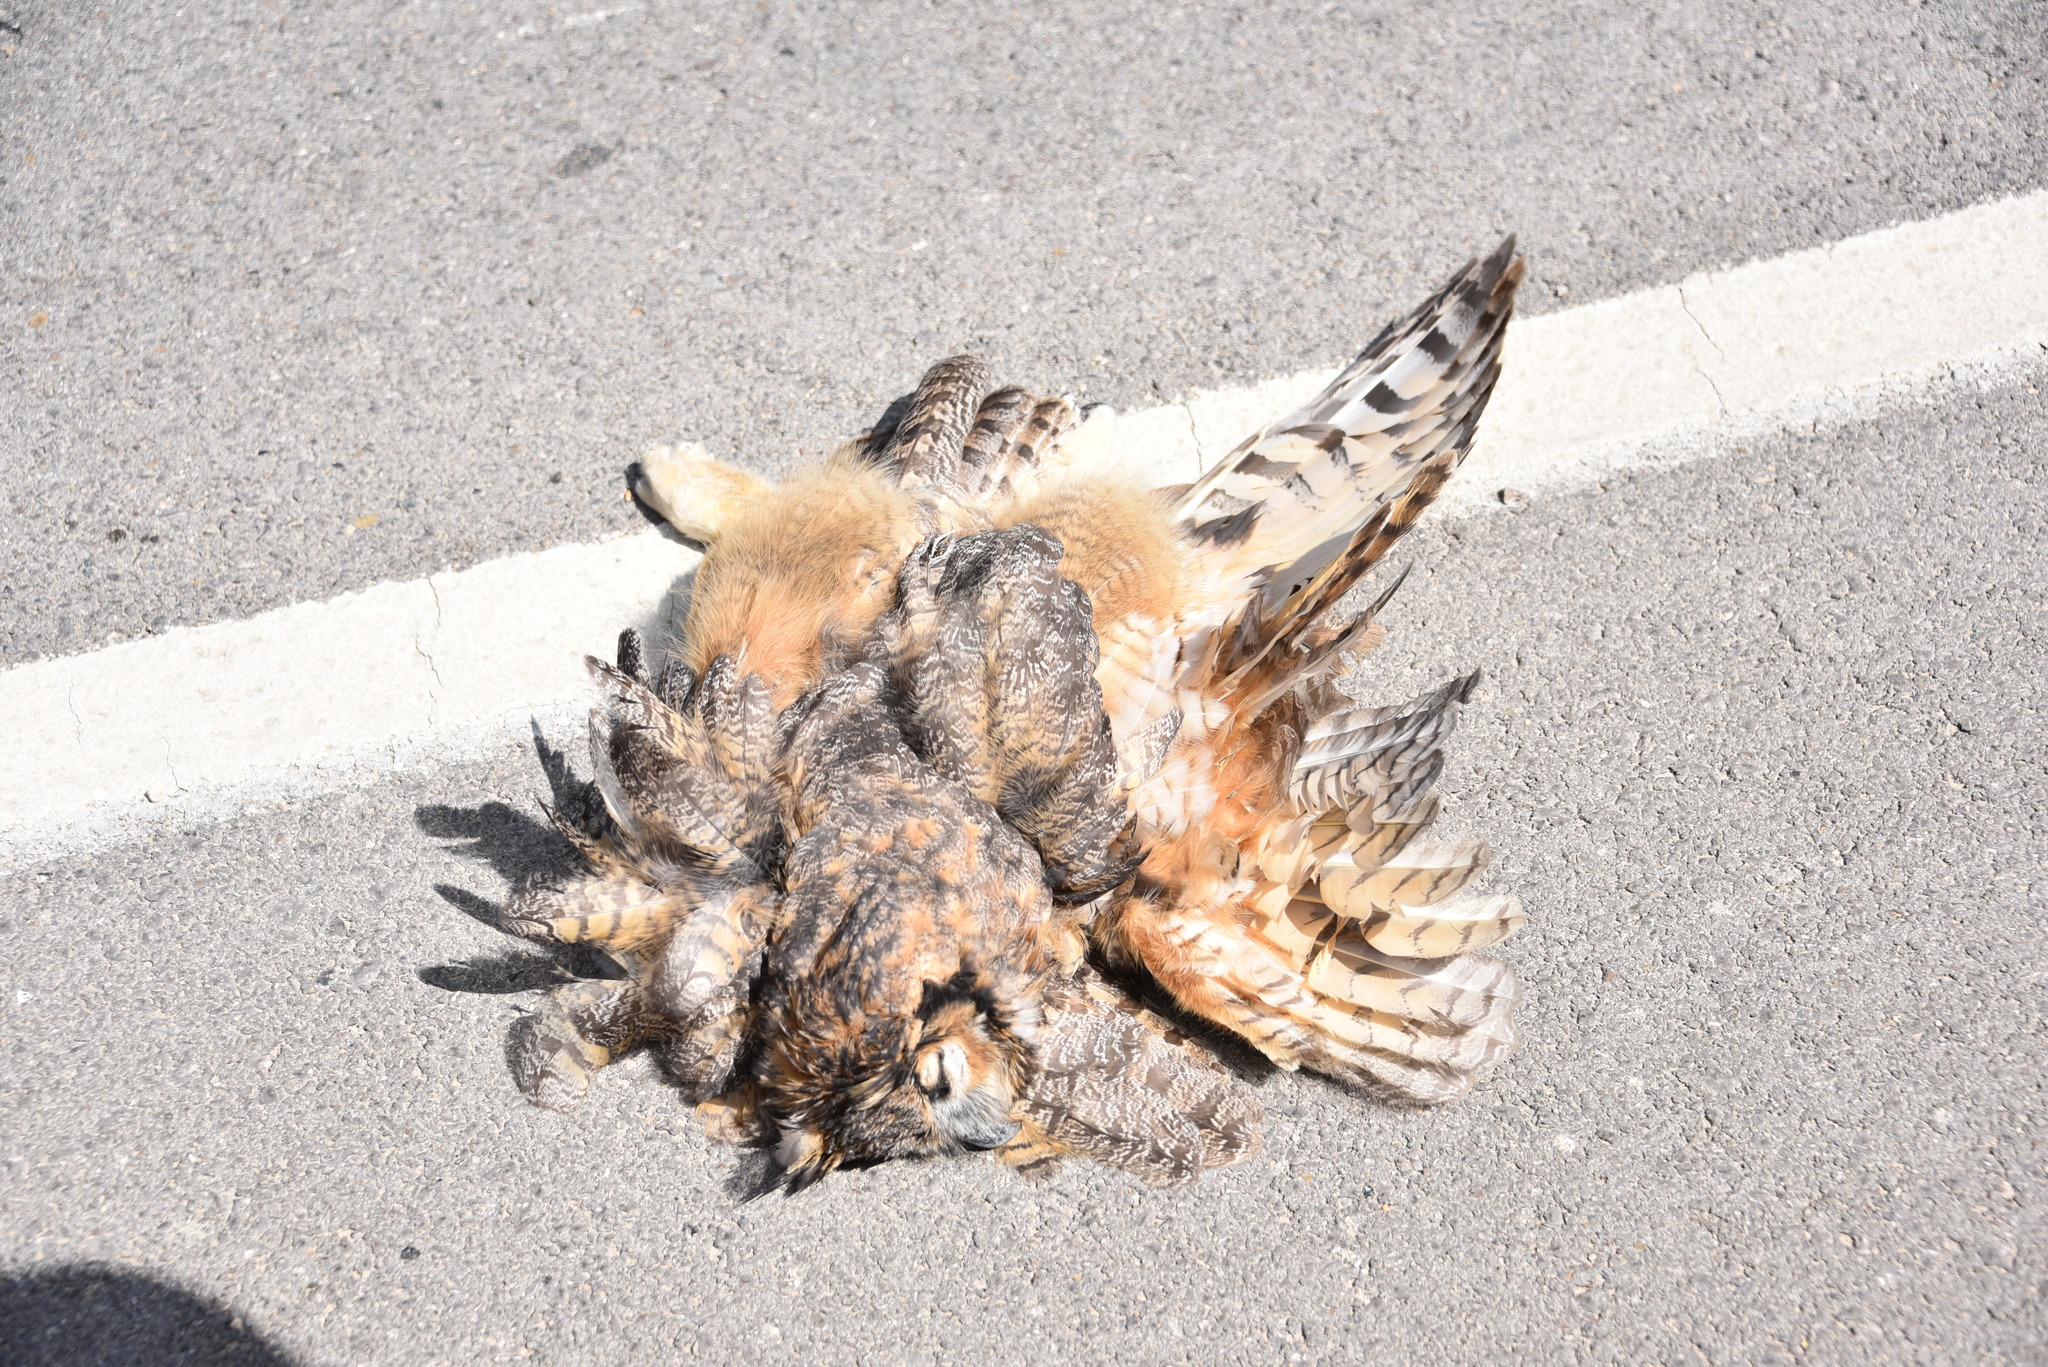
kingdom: Animalia
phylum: Chordata
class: Aves
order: Strigiformes
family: Strigidae
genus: Bubo
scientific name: Bubo virginianus
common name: Great horned owl
